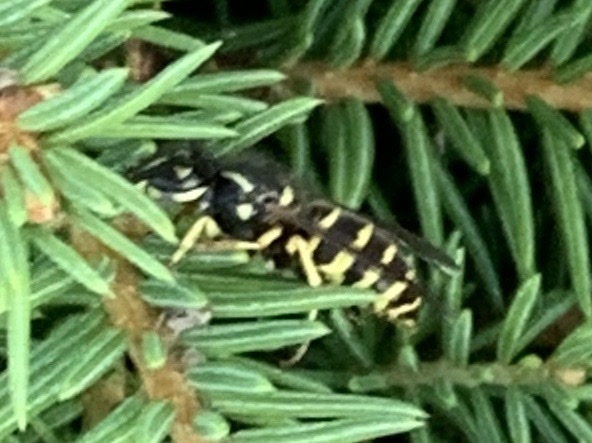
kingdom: Animalia
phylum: Arthropoda
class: Insecta
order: Hymenoptera
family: Vespidae
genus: Vespula
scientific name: Vespula alascensis
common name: Alaska yellowjacket
